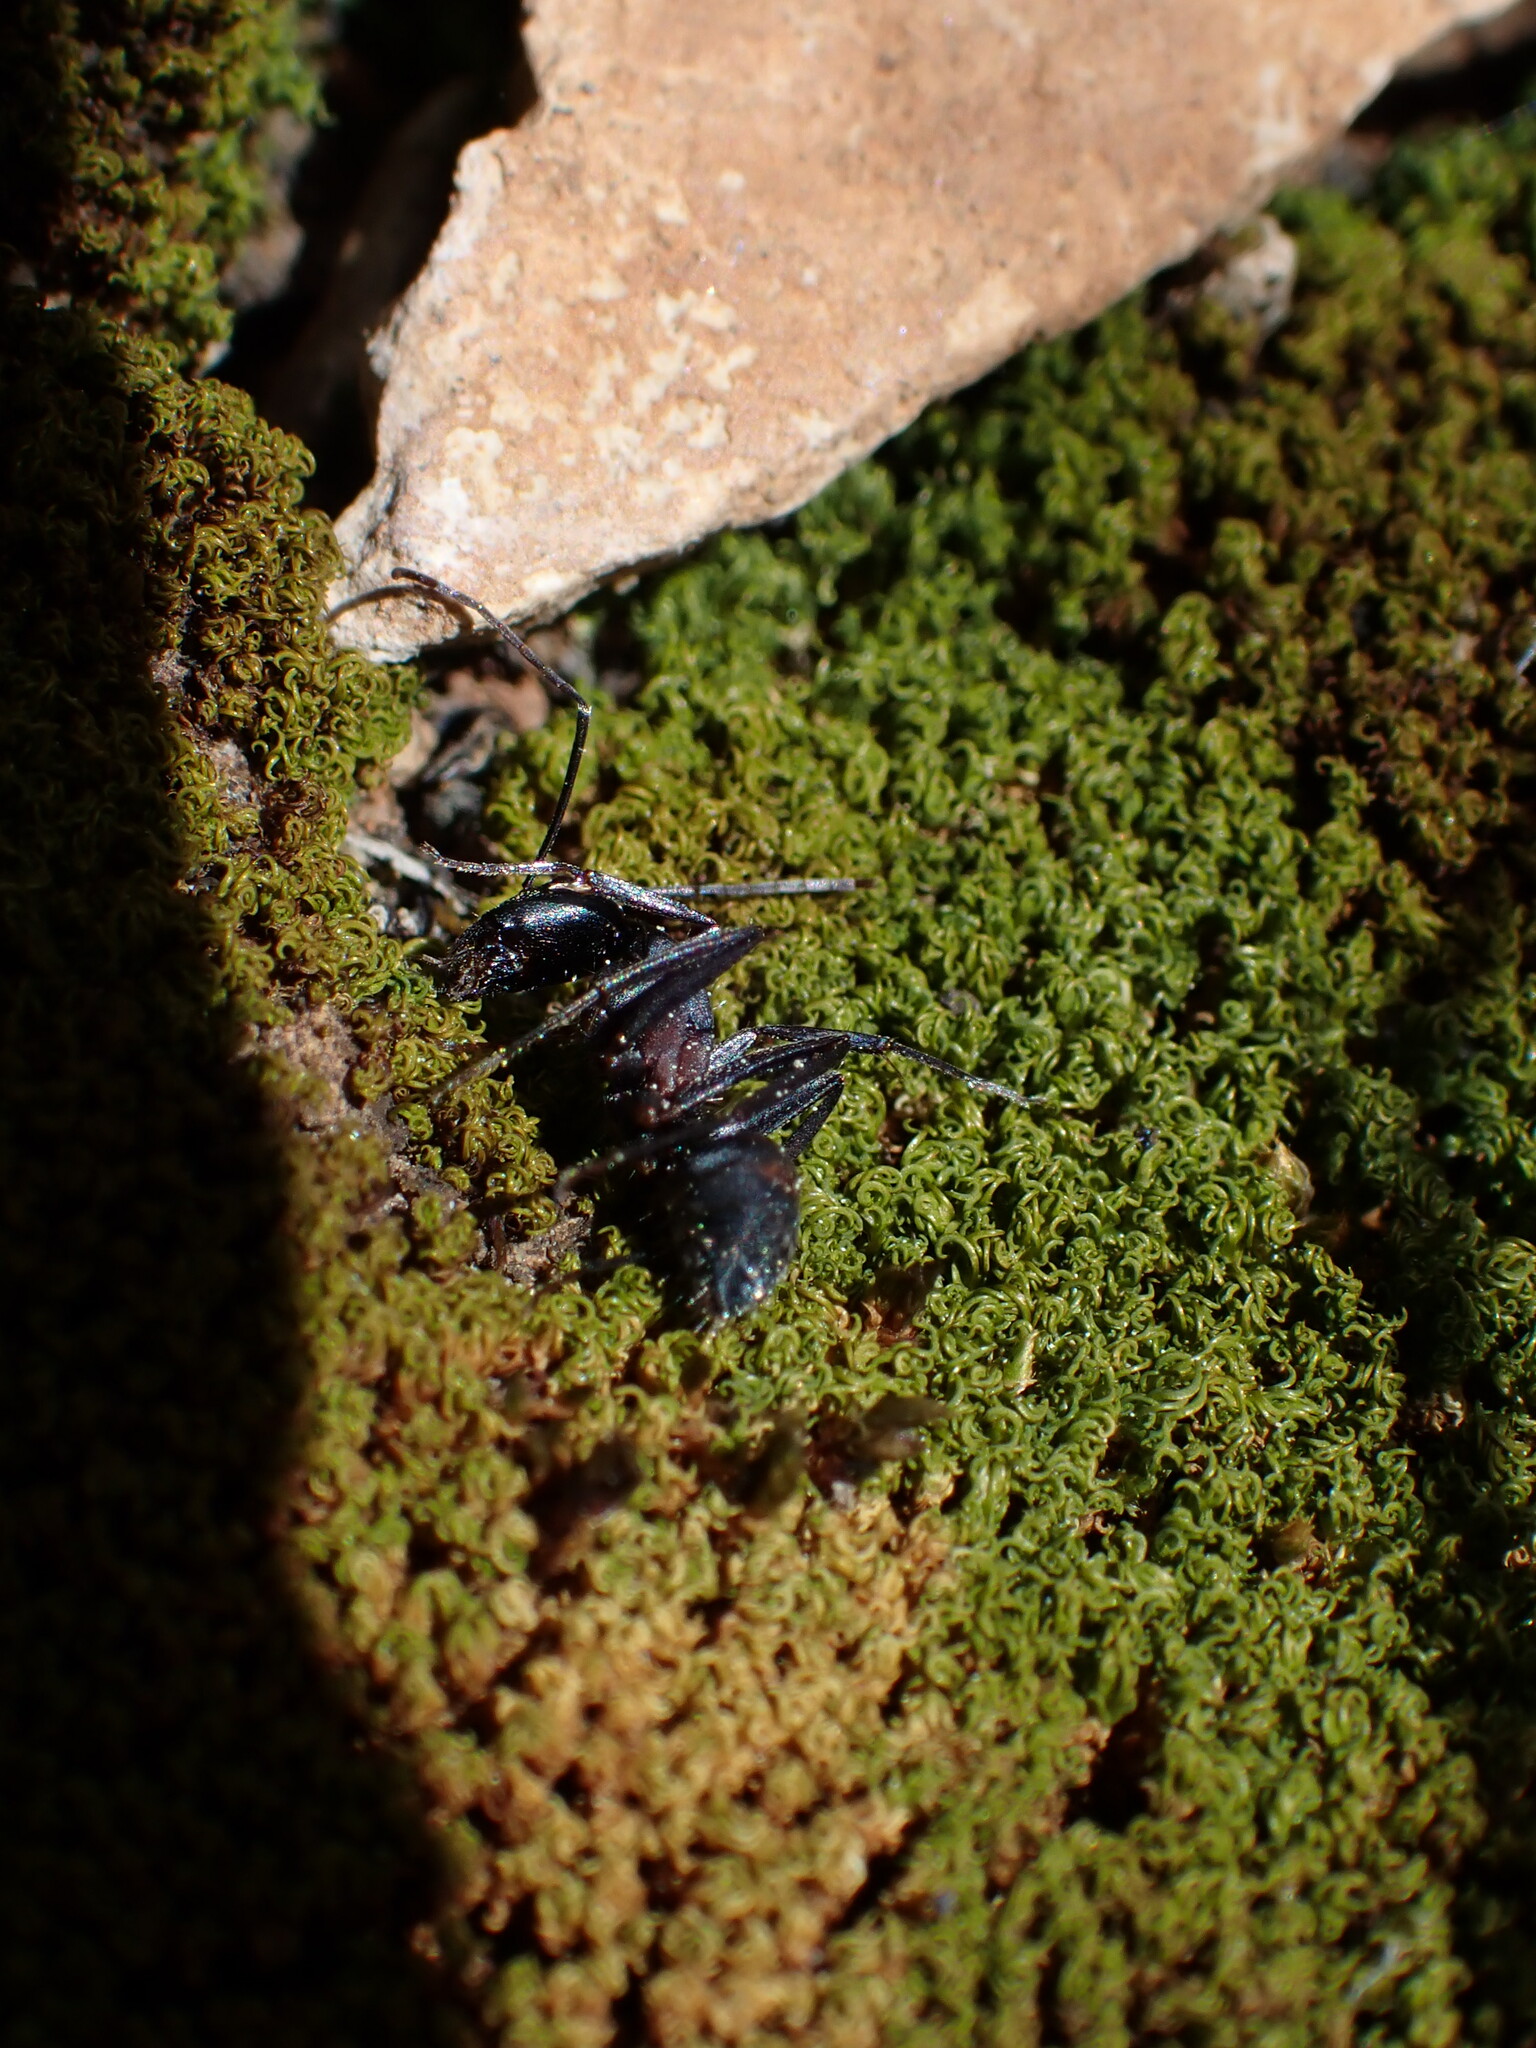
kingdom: Animalia
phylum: Arthropoda
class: Insecta
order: Hymenoptera
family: Formicidae
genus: Camponotus
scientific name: Camponotus cruentatus
